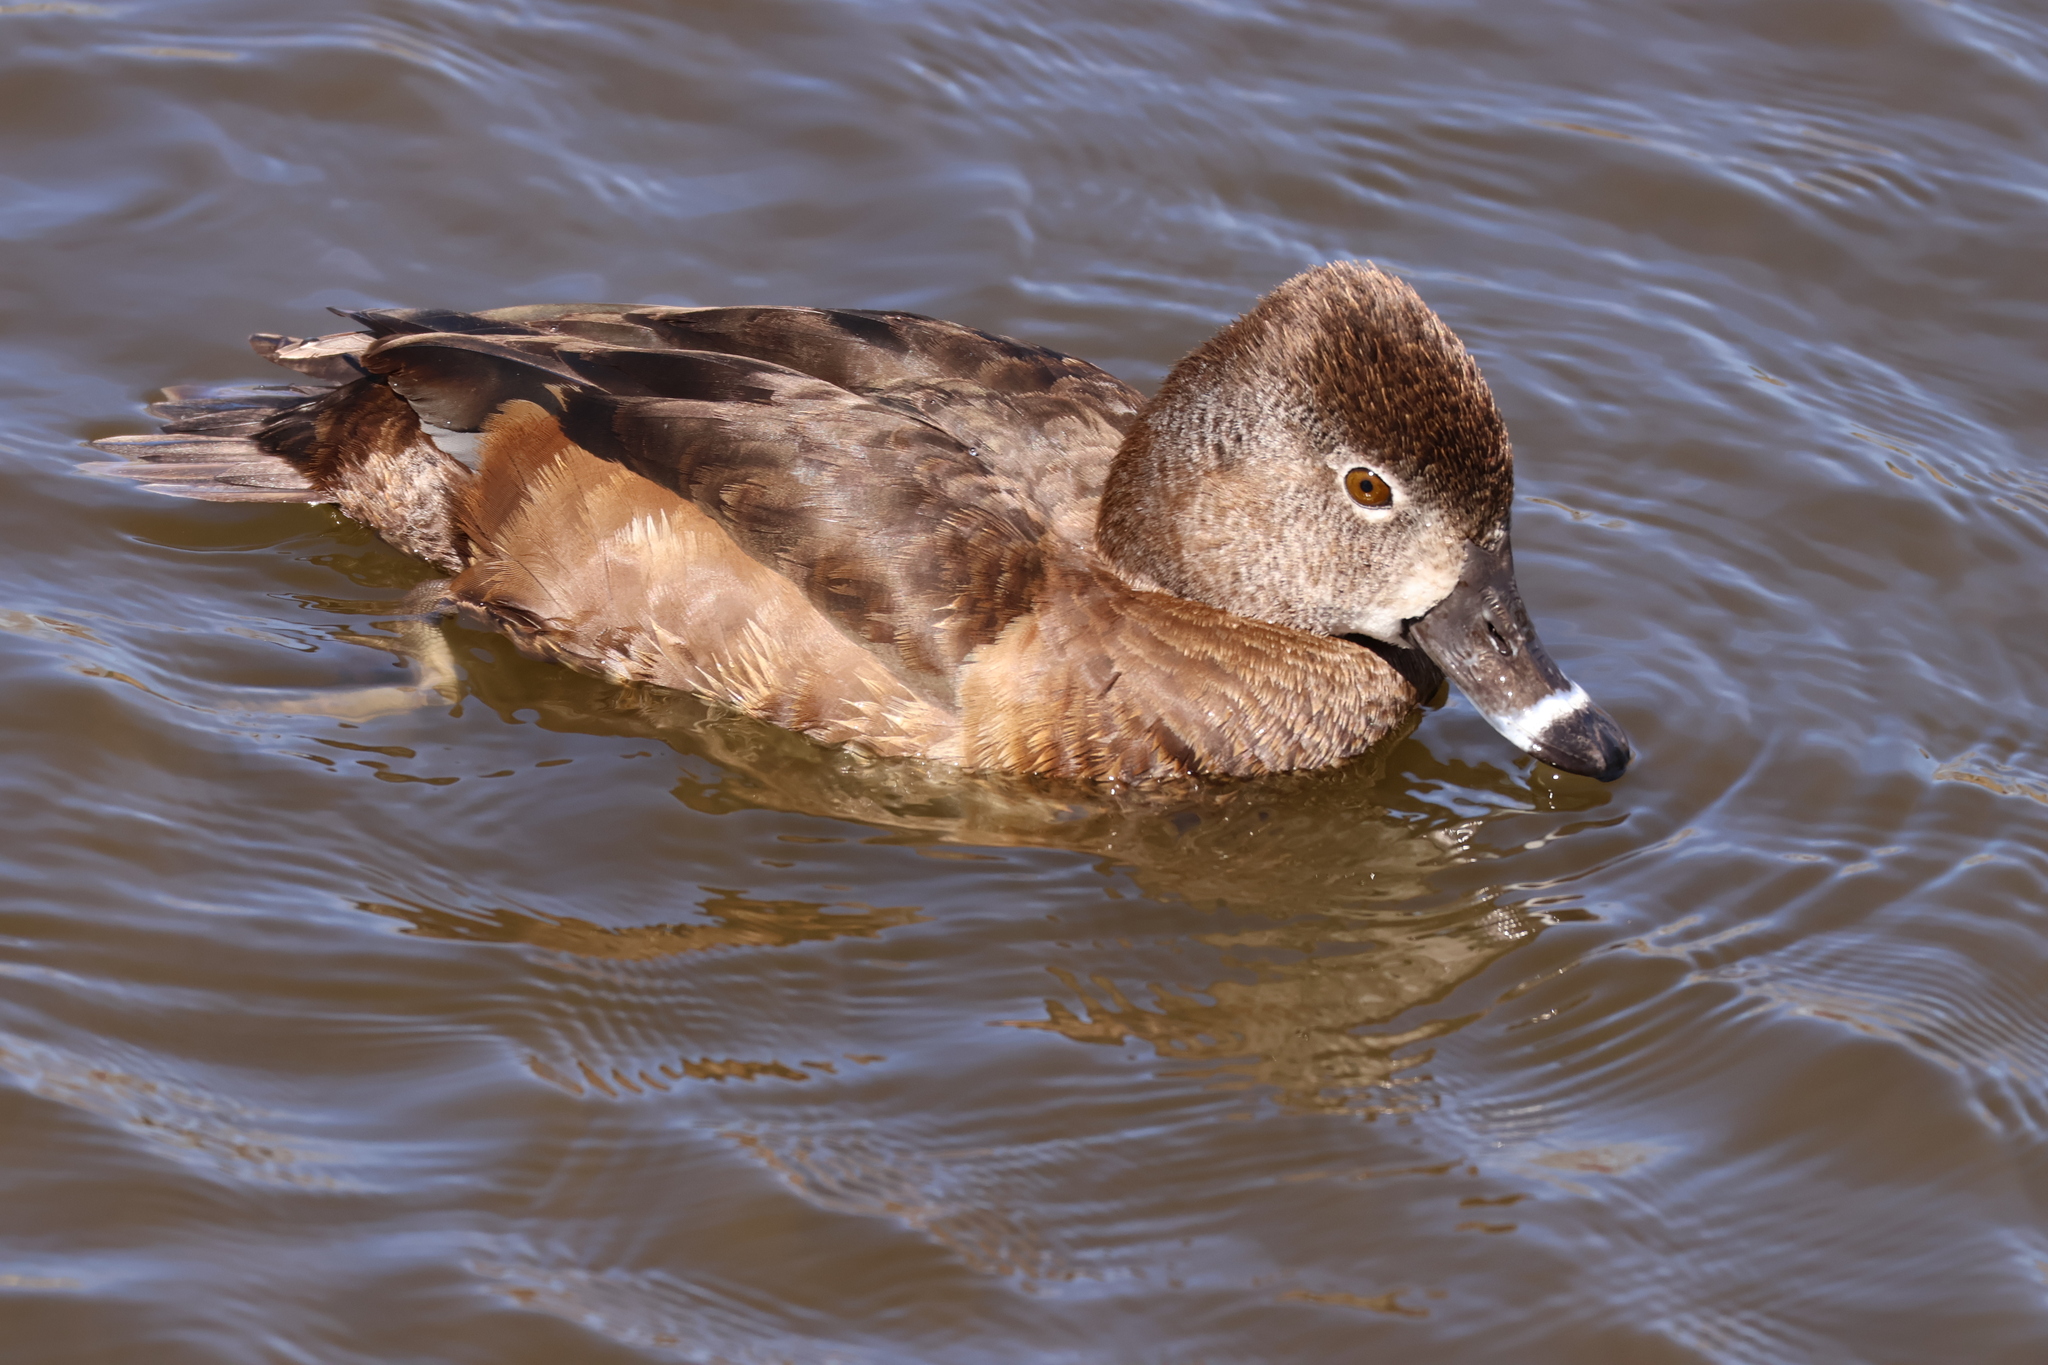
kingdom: Animalia
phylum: Chordata
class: Aves
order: Anseriformes
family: Anatidae
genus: Aythya
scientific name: Aythya collaris
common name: Ring-necked duck
